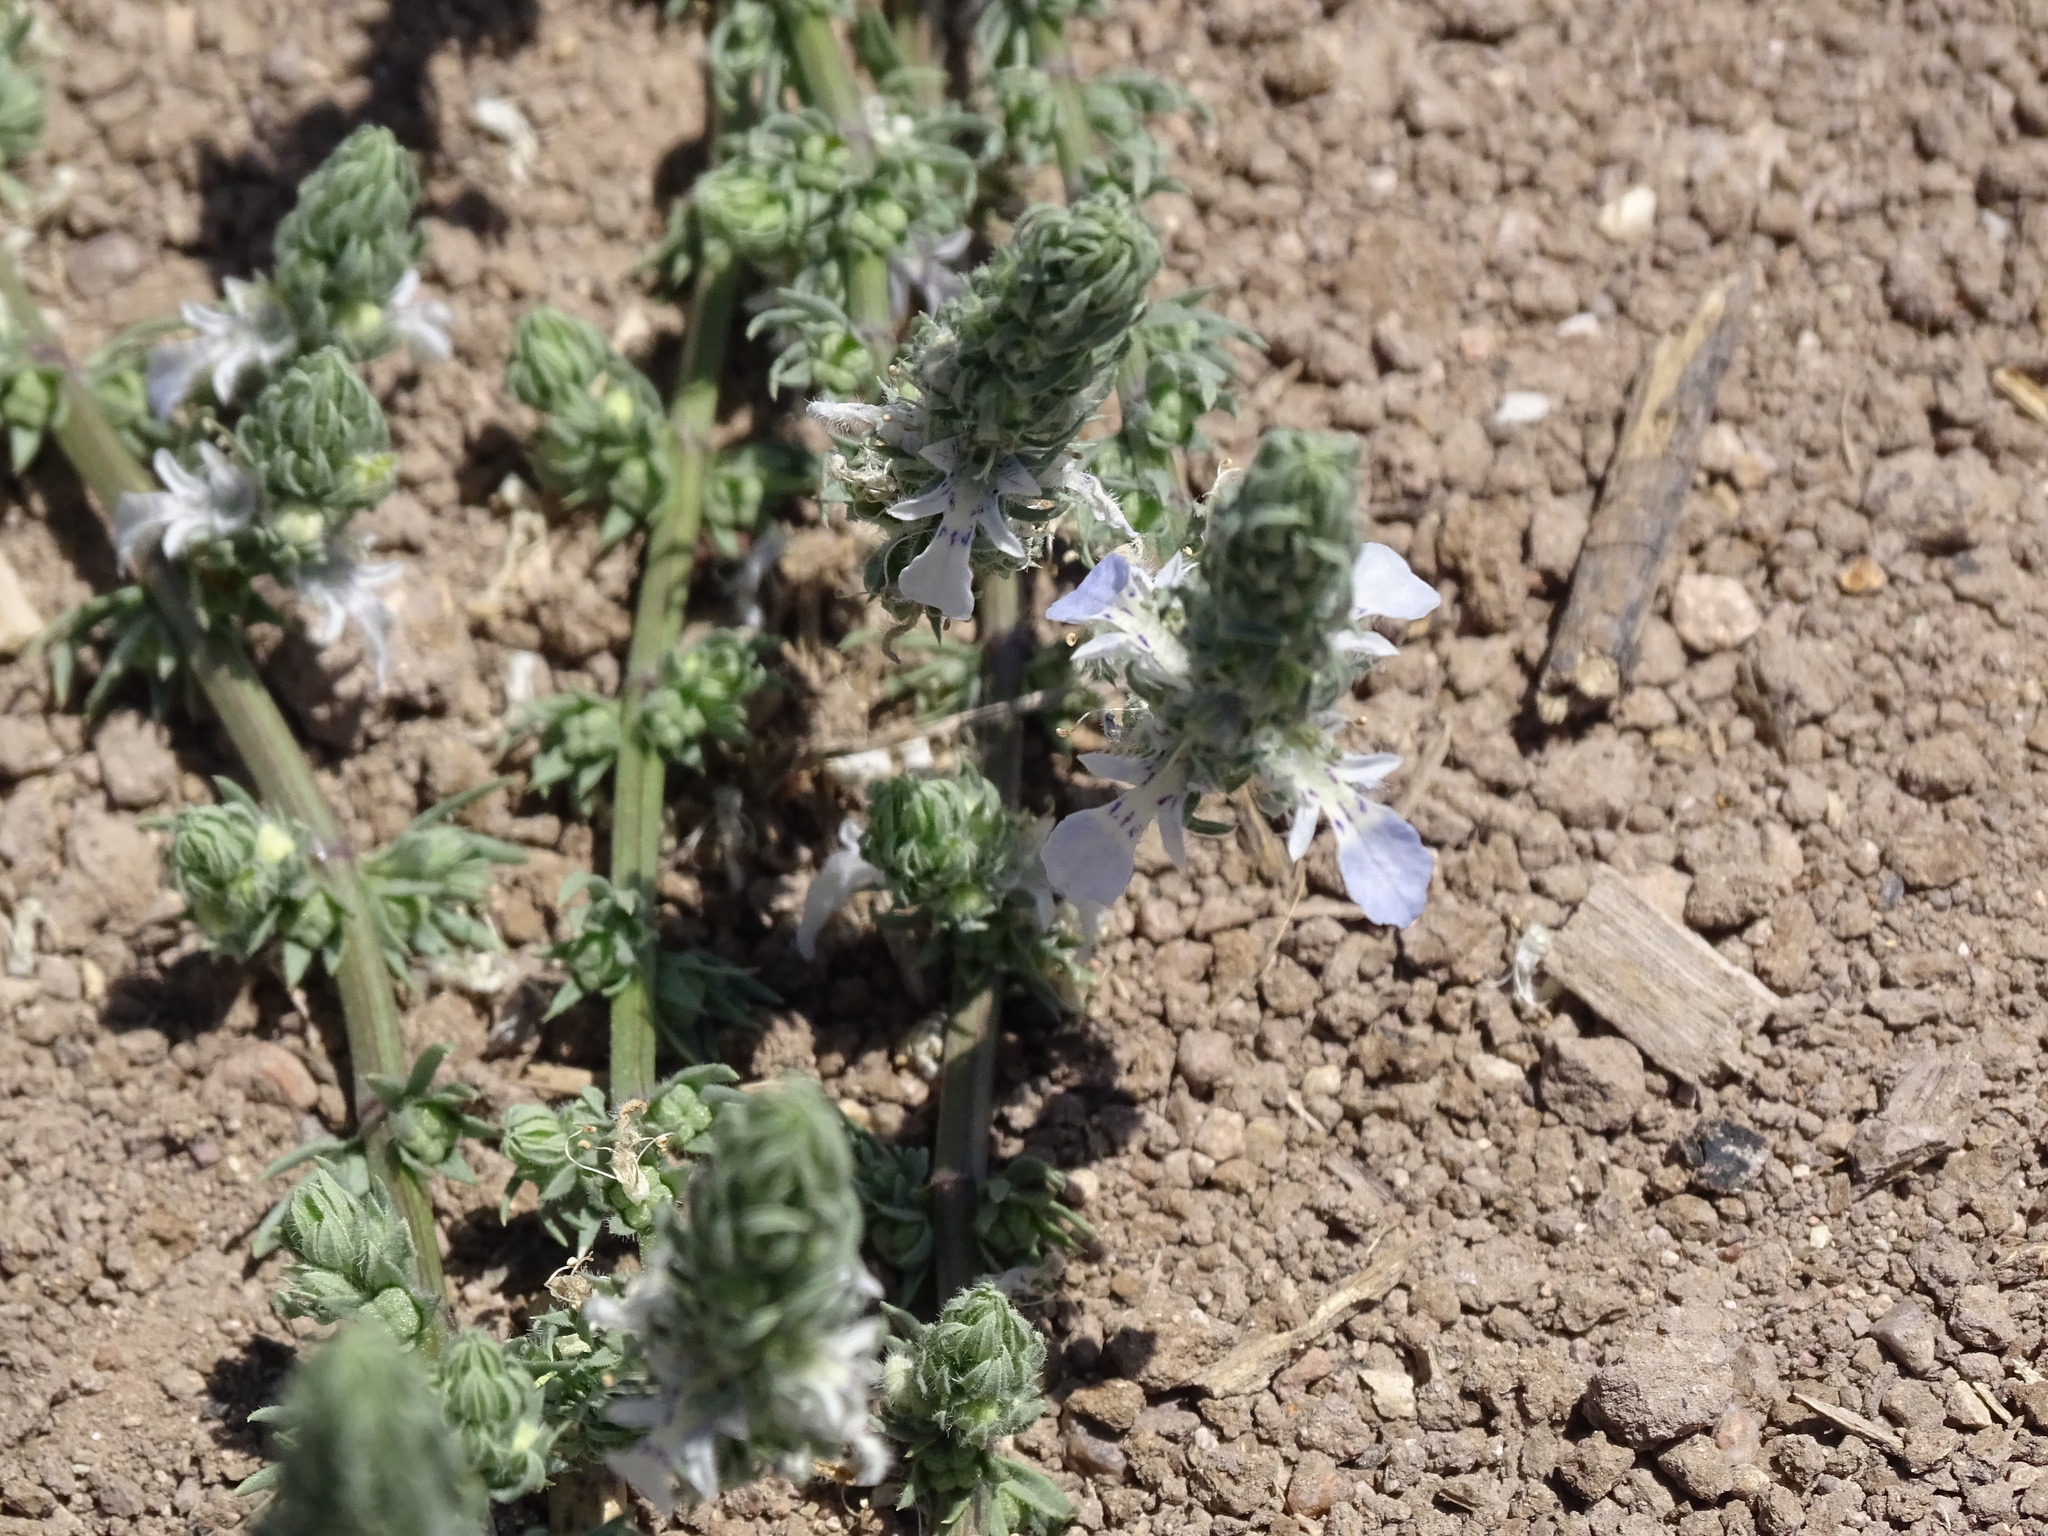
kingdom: Plantae
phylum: Tracheophyta
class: Magnoliopsida
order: Lamiales
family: Lamiaceae
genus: Teucrium
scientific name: Teucrium depressum
